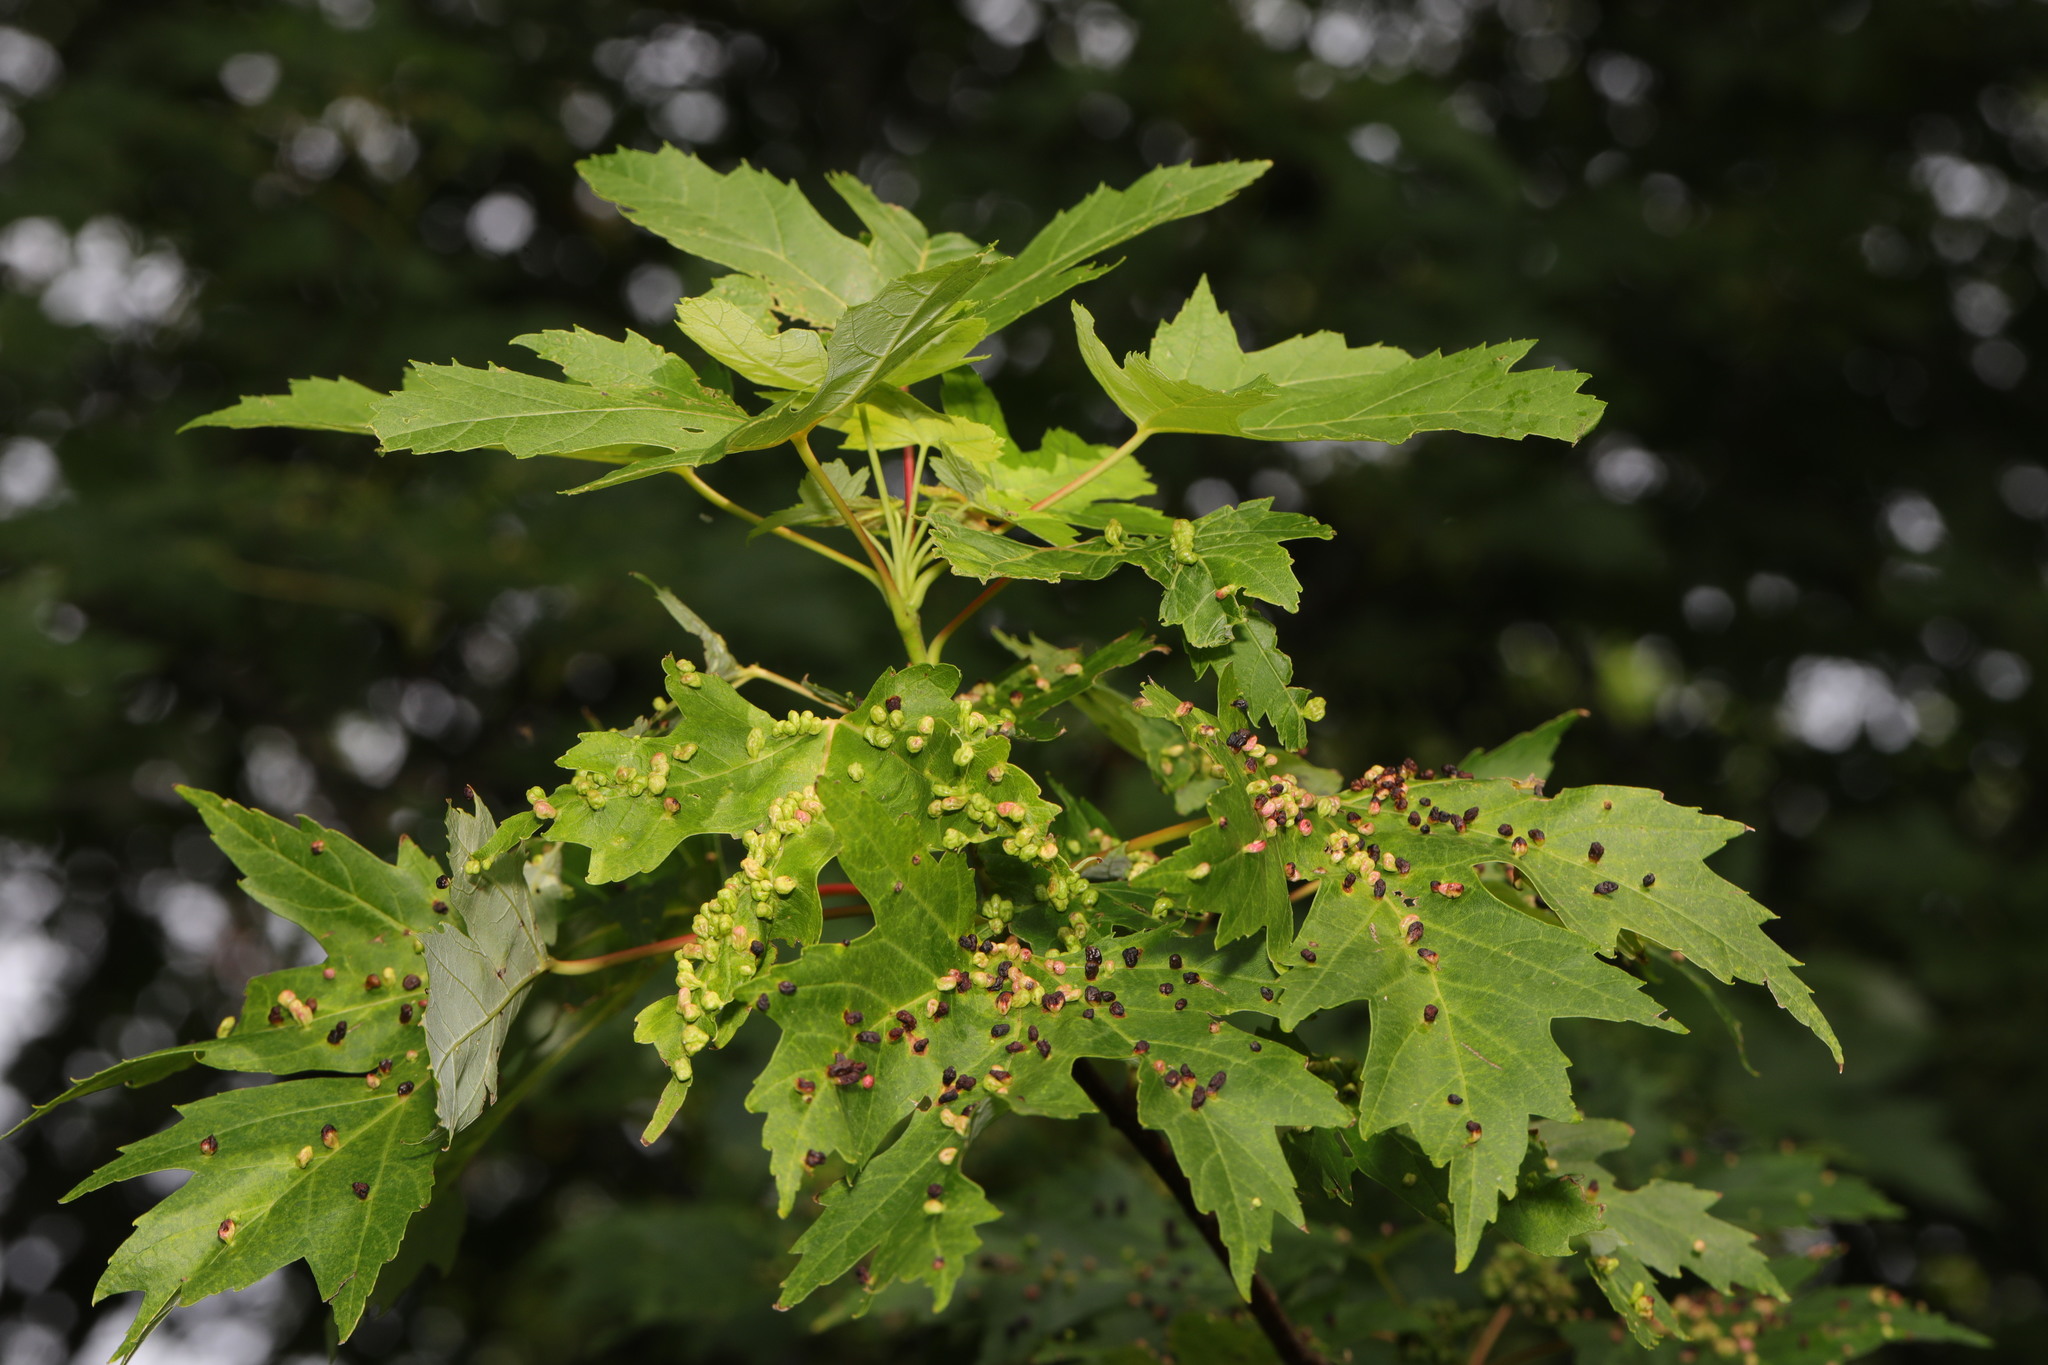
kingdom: Plantae
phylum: Tracheophyta
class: Magnoliopsida
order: Sapindales
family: Sapindaceae
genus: Acer
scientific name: Acer saccharinum
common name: Silver maple
